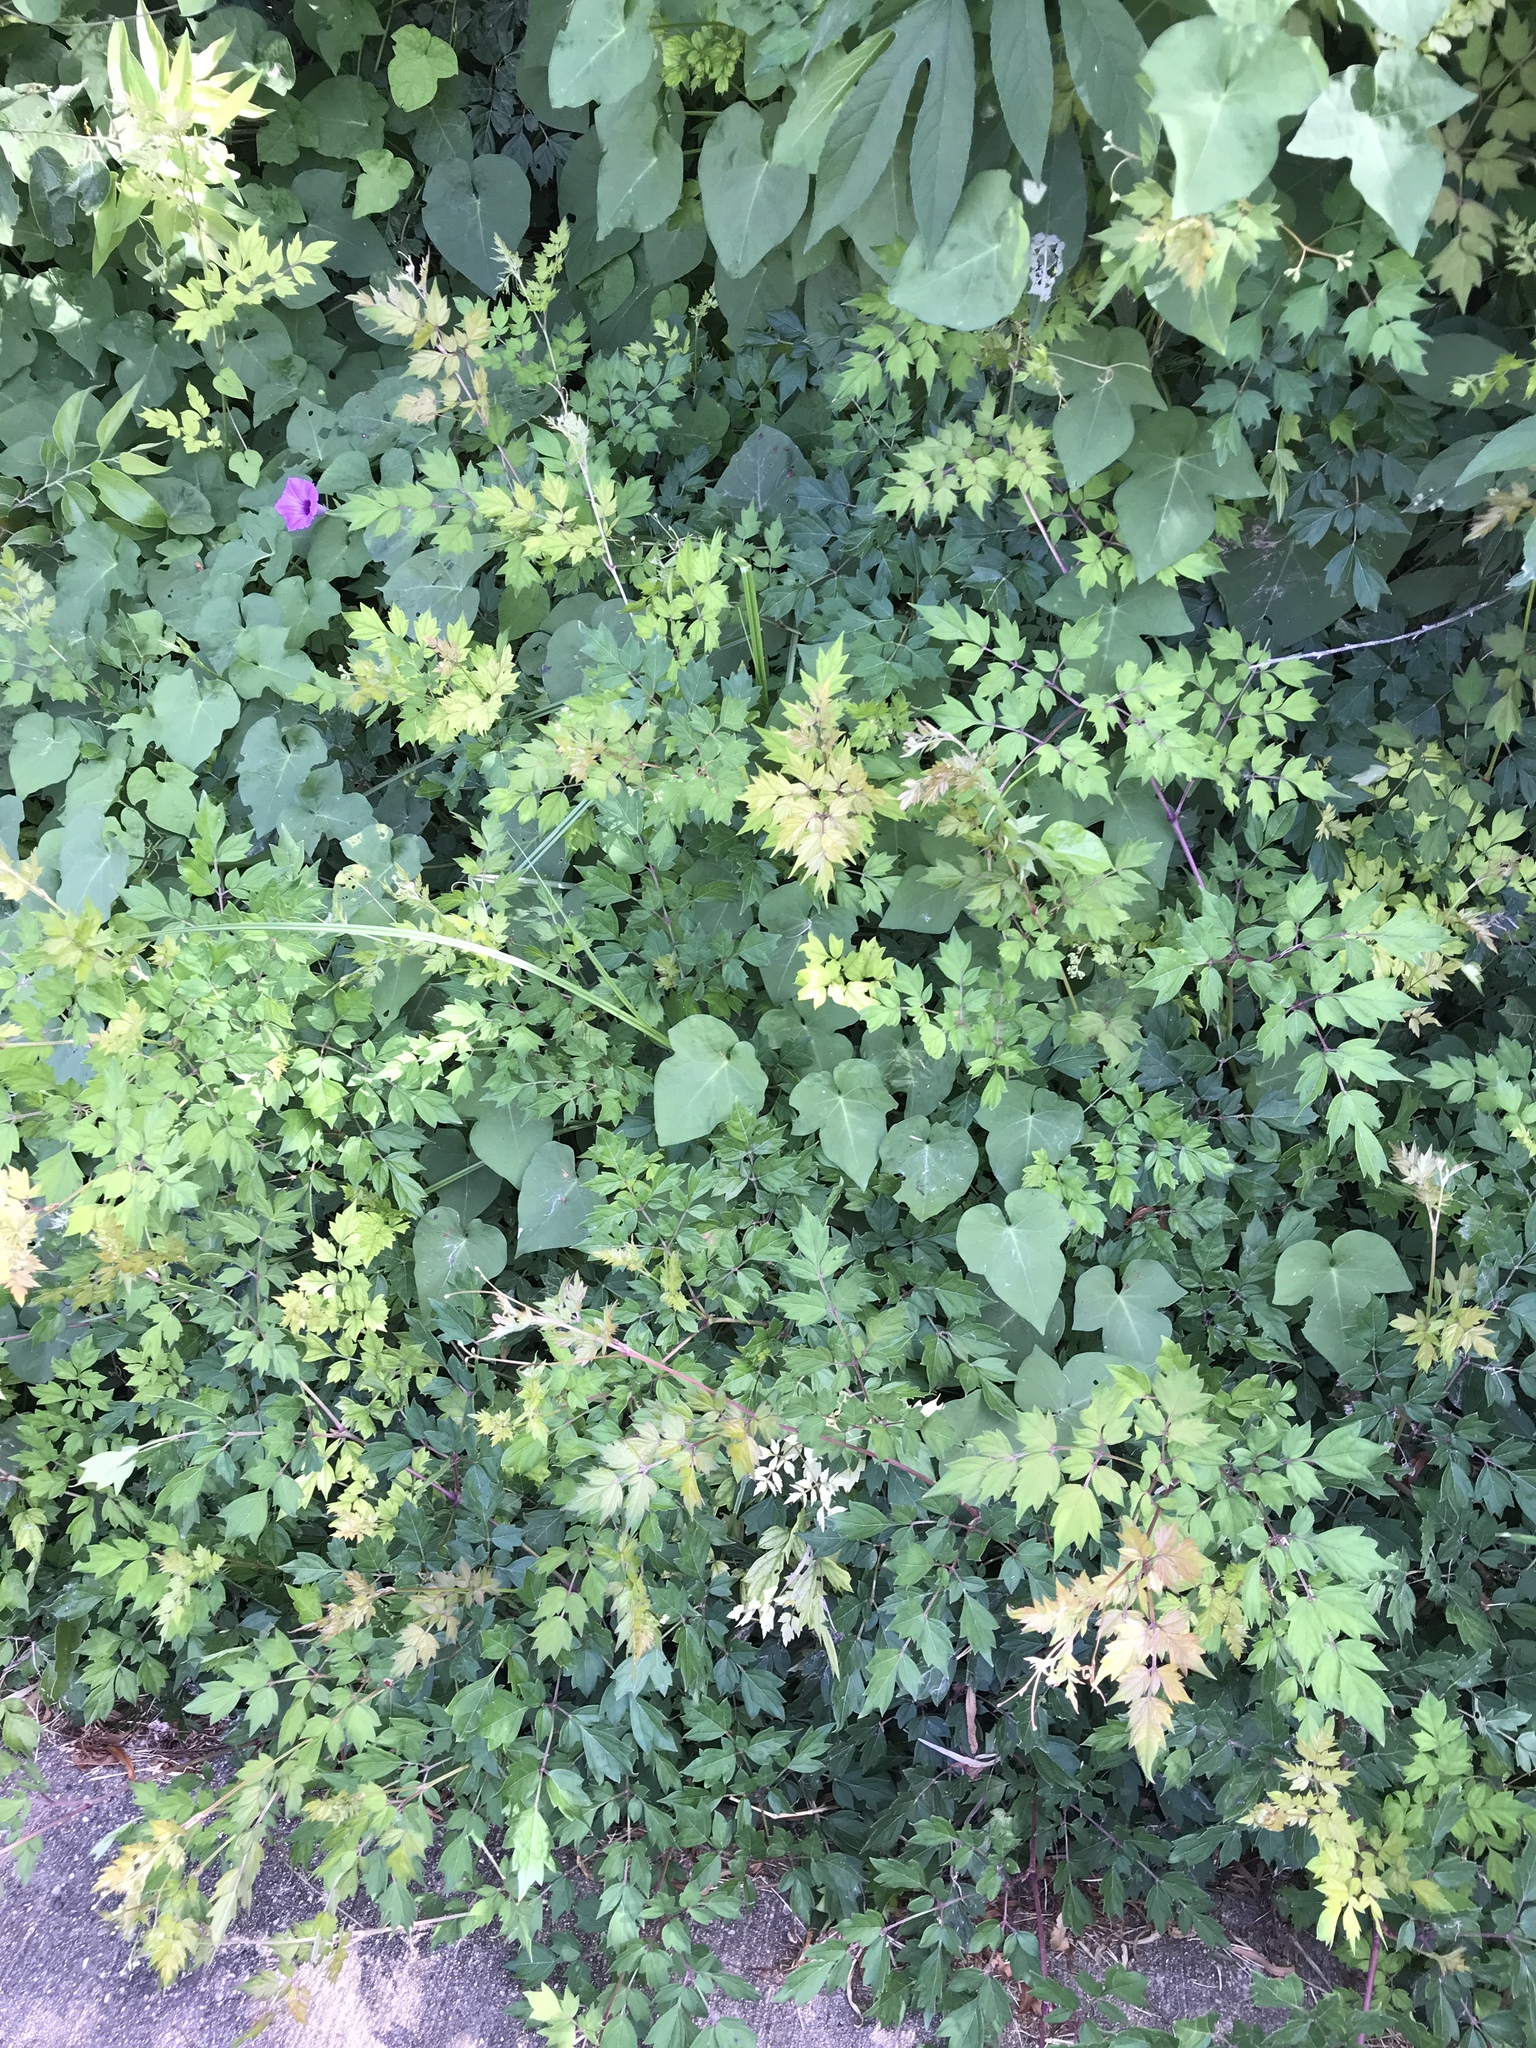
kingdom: Plantae
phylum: Tracheophyta
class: Magnoliopsida
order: Vitales
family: Vitaceae
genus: Nekemias
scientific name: Nekemias arborea
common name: Peppervine
